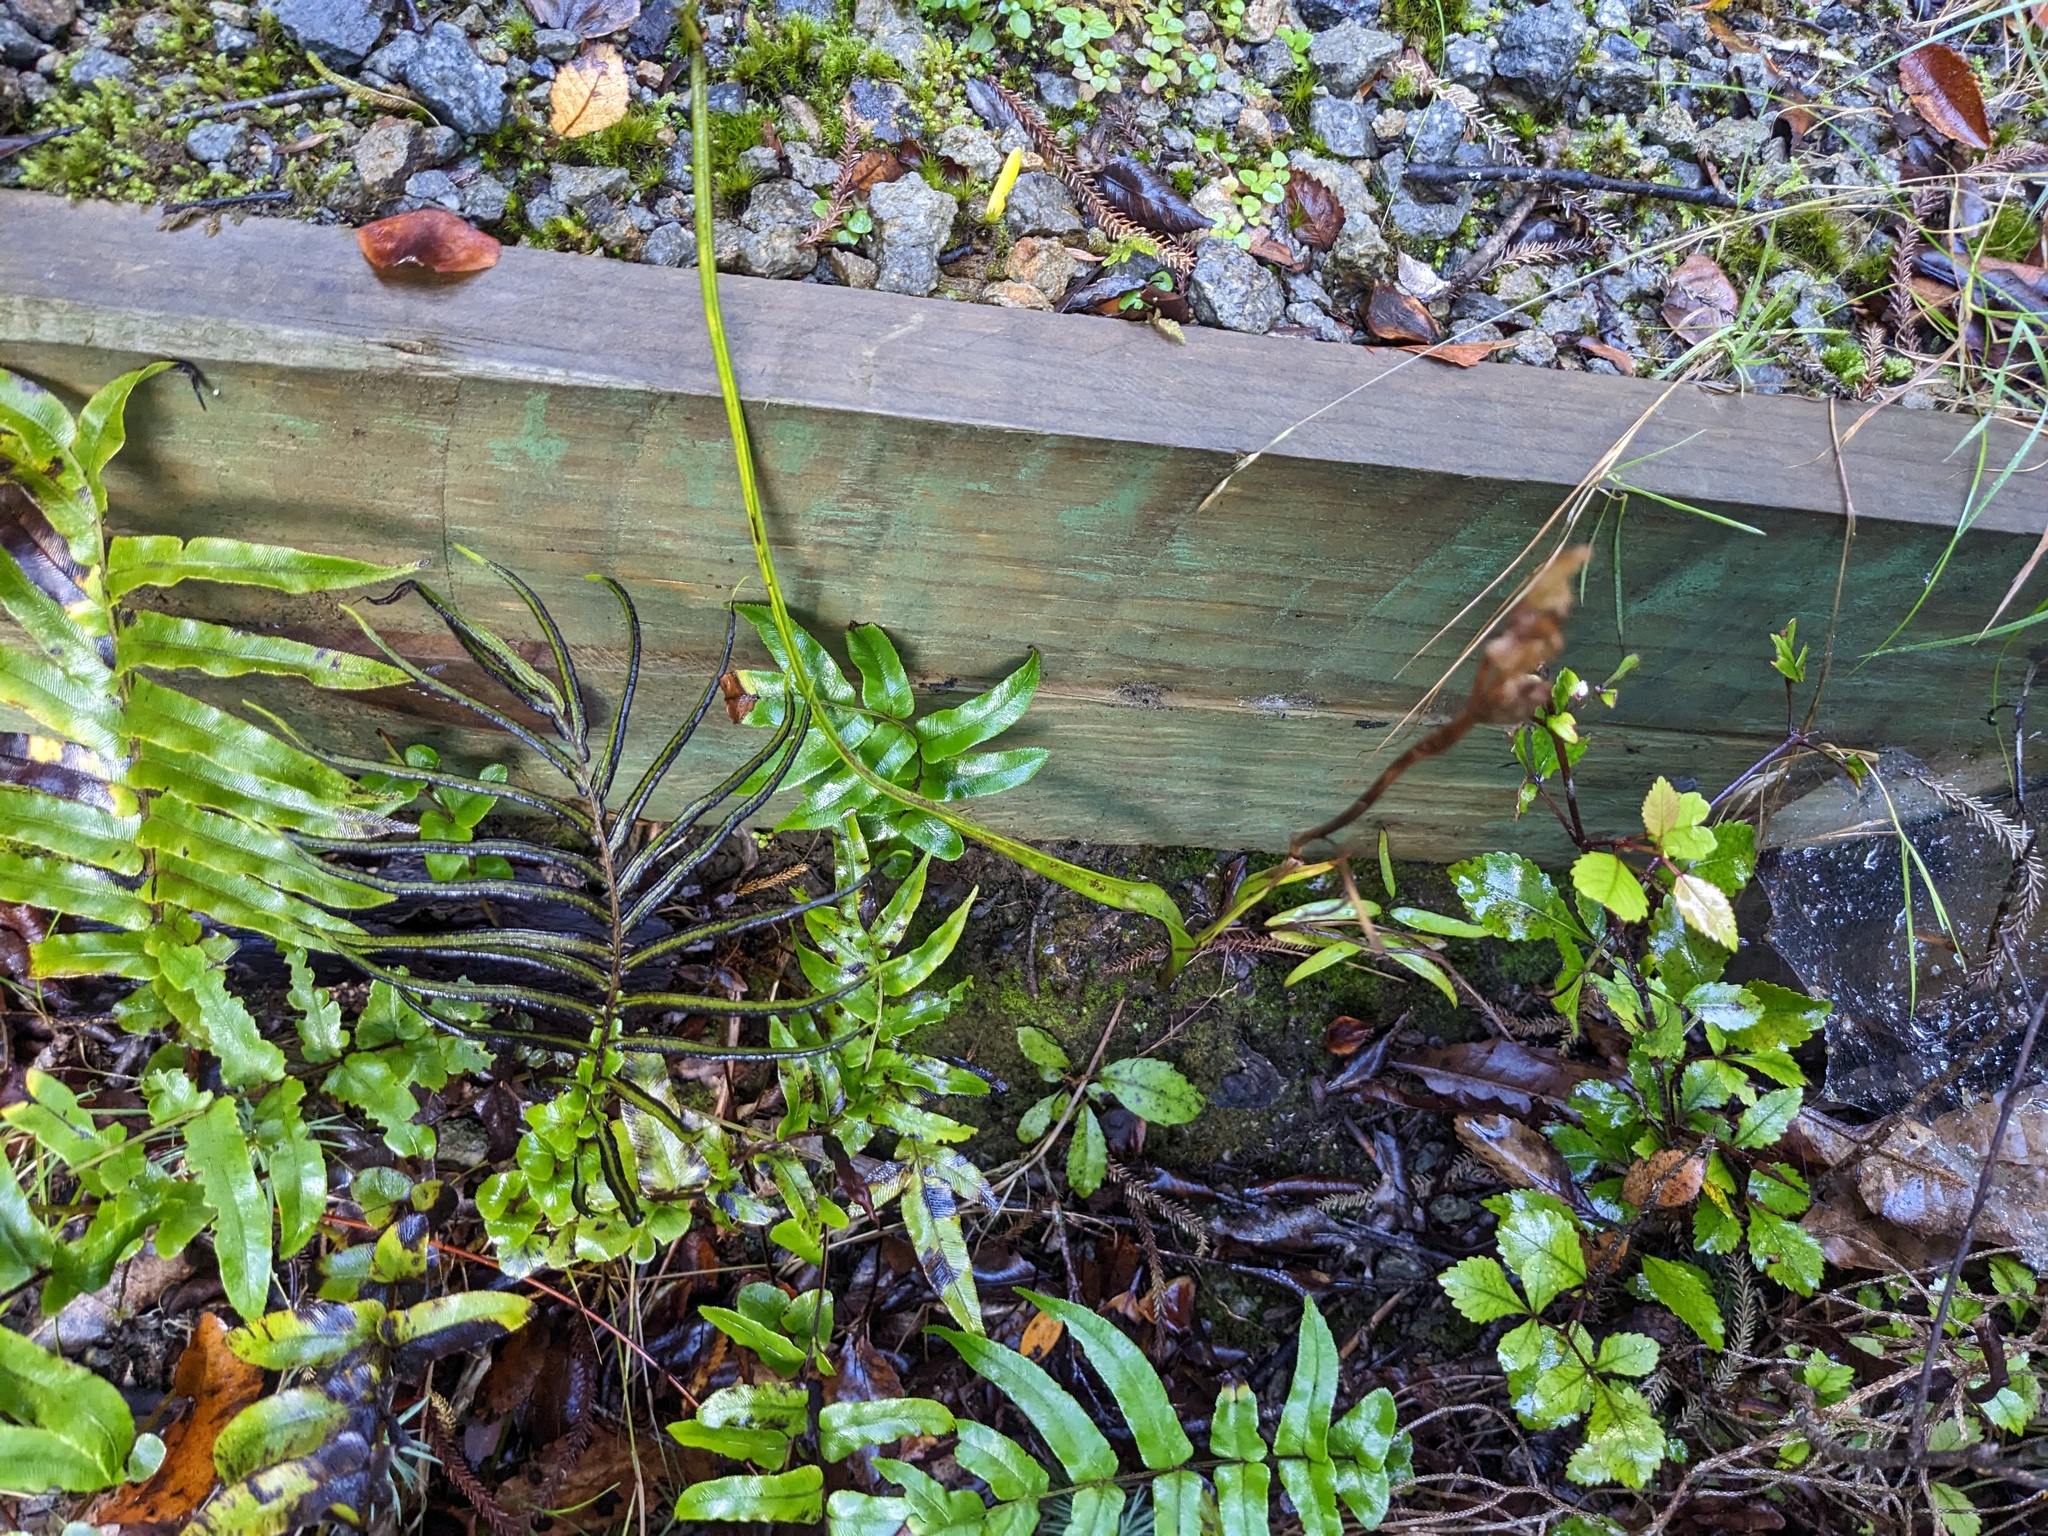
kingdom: Plantae
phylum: Tracheophyta
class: Liliopsida
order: Asparagales
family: Orchidaceae
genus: Thelymitra
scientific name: Thelymitra hatchii
